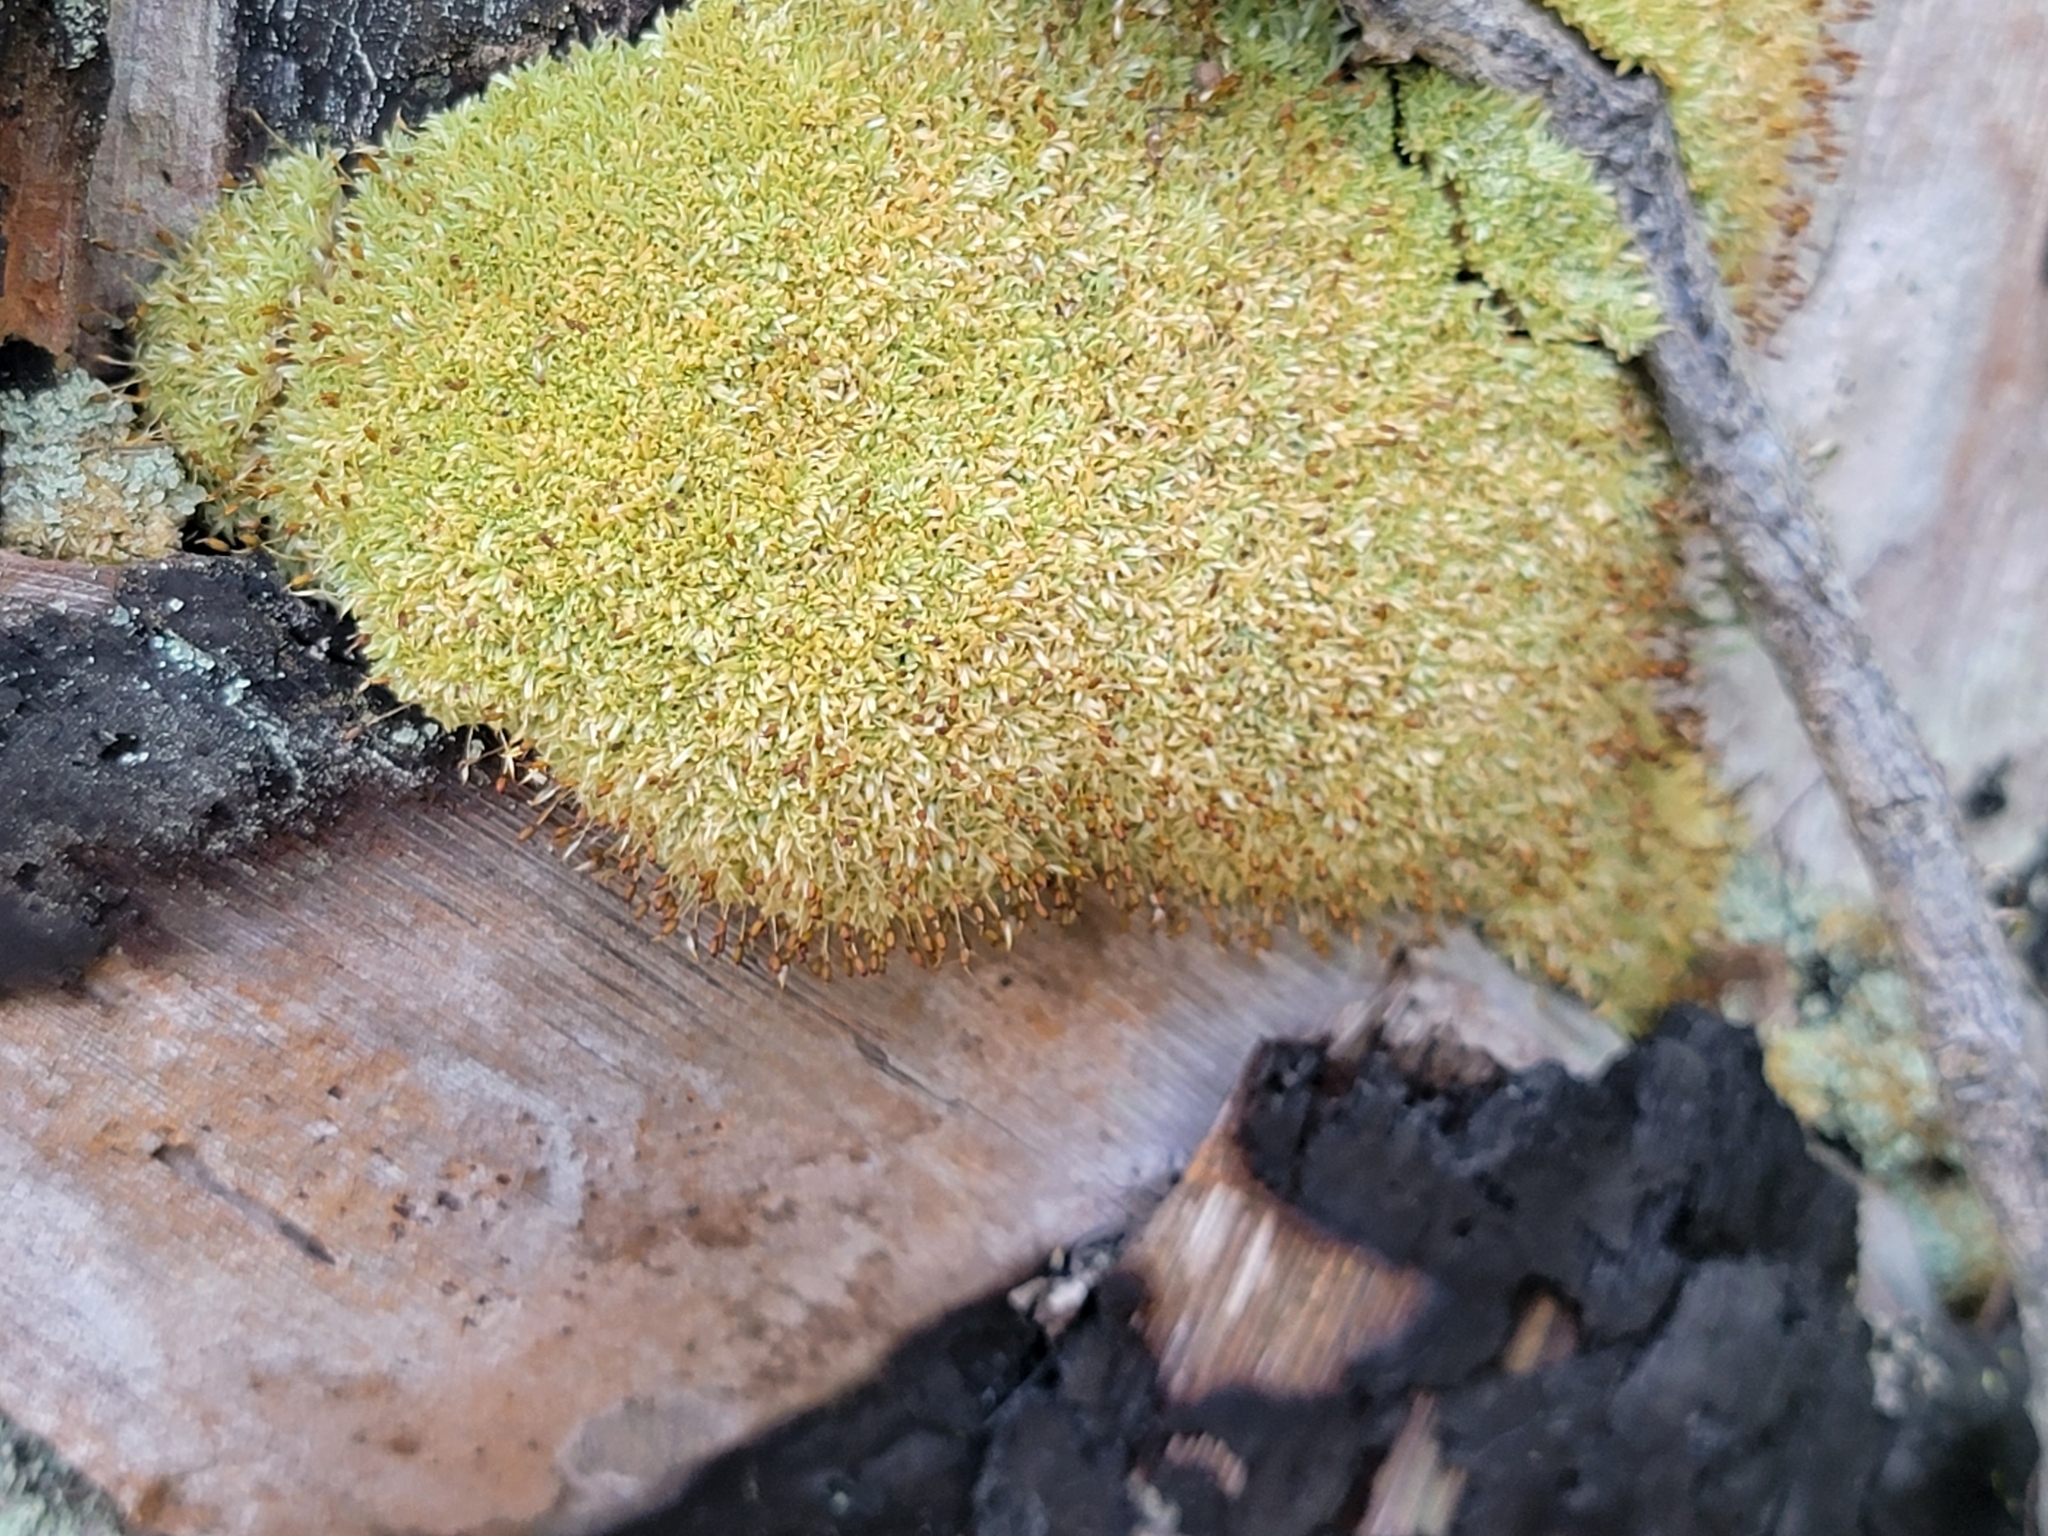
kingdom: Plantae
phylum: Bryophyta
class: Bryopsida
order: Dicranales
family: Octoblepharaceae
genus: Octoblepharum
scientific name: Octoblepharum albidum
